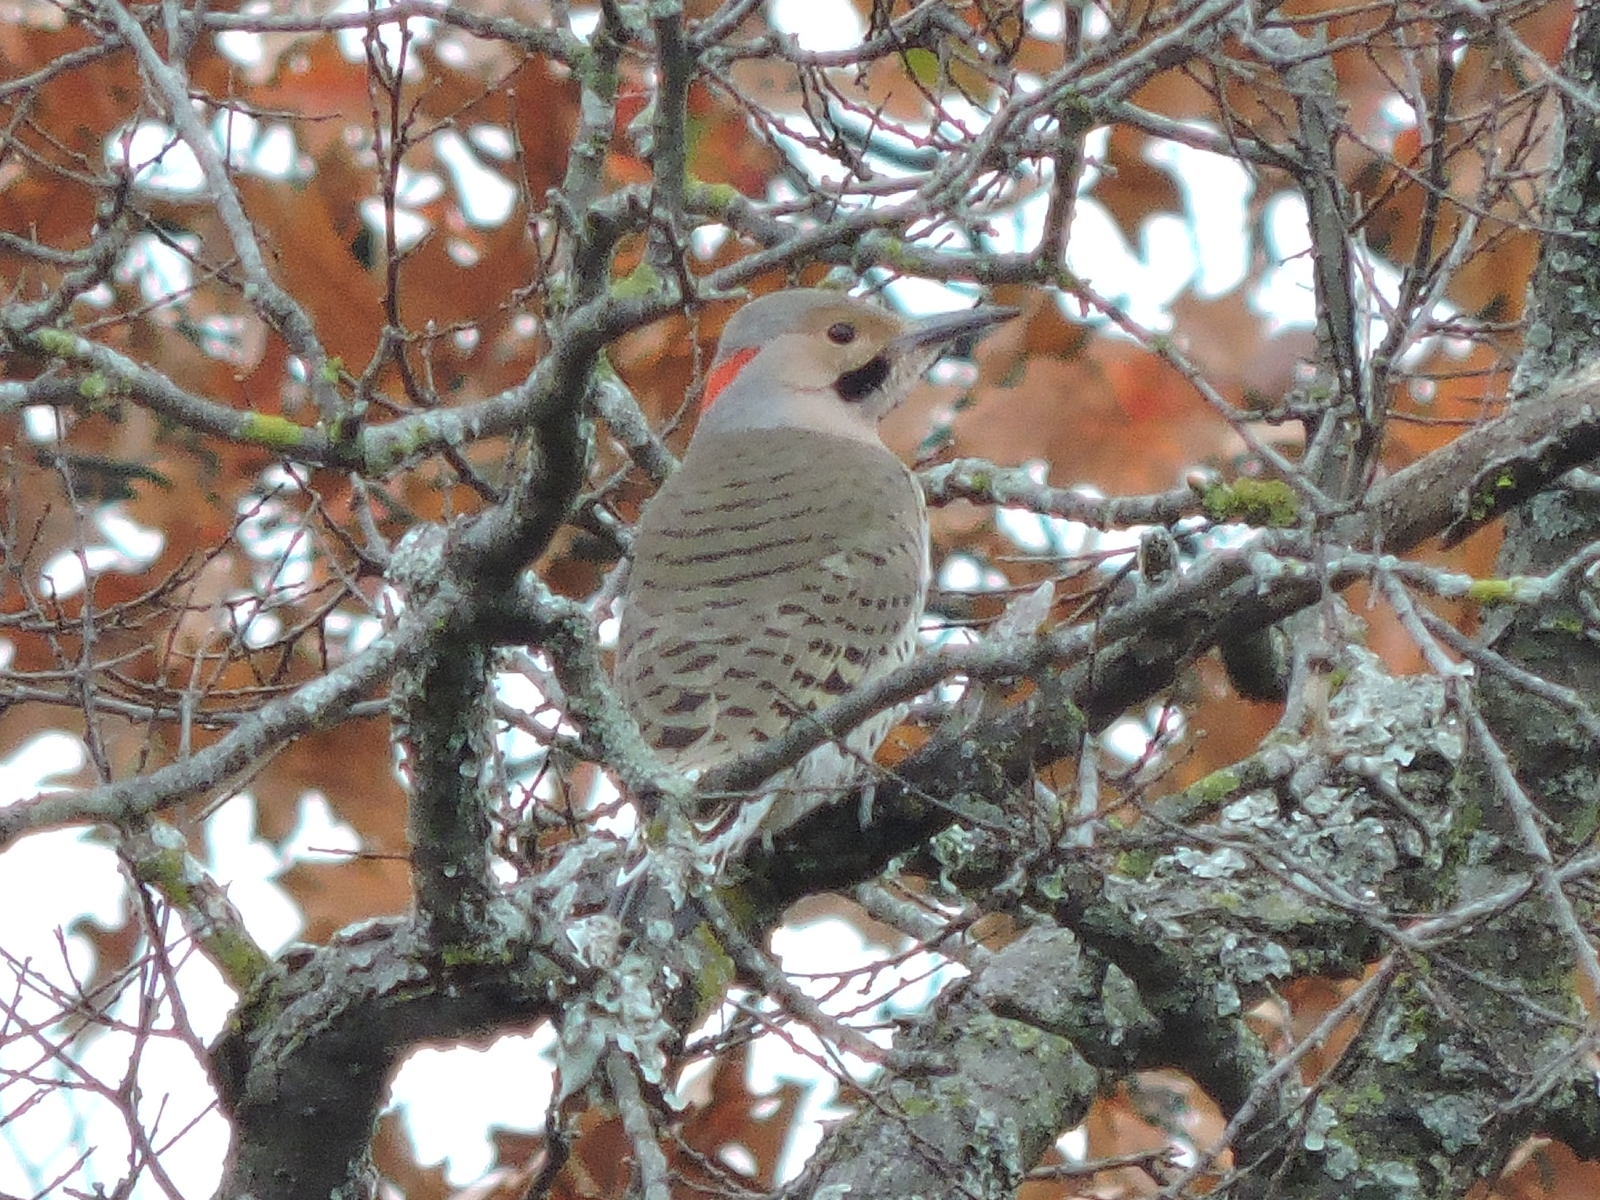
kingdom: Animalia
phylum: Chordata
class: Aves
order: Piciformes
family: Picidae
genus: Colaptes
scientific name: Colaptes auratus
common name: Northern flicker
